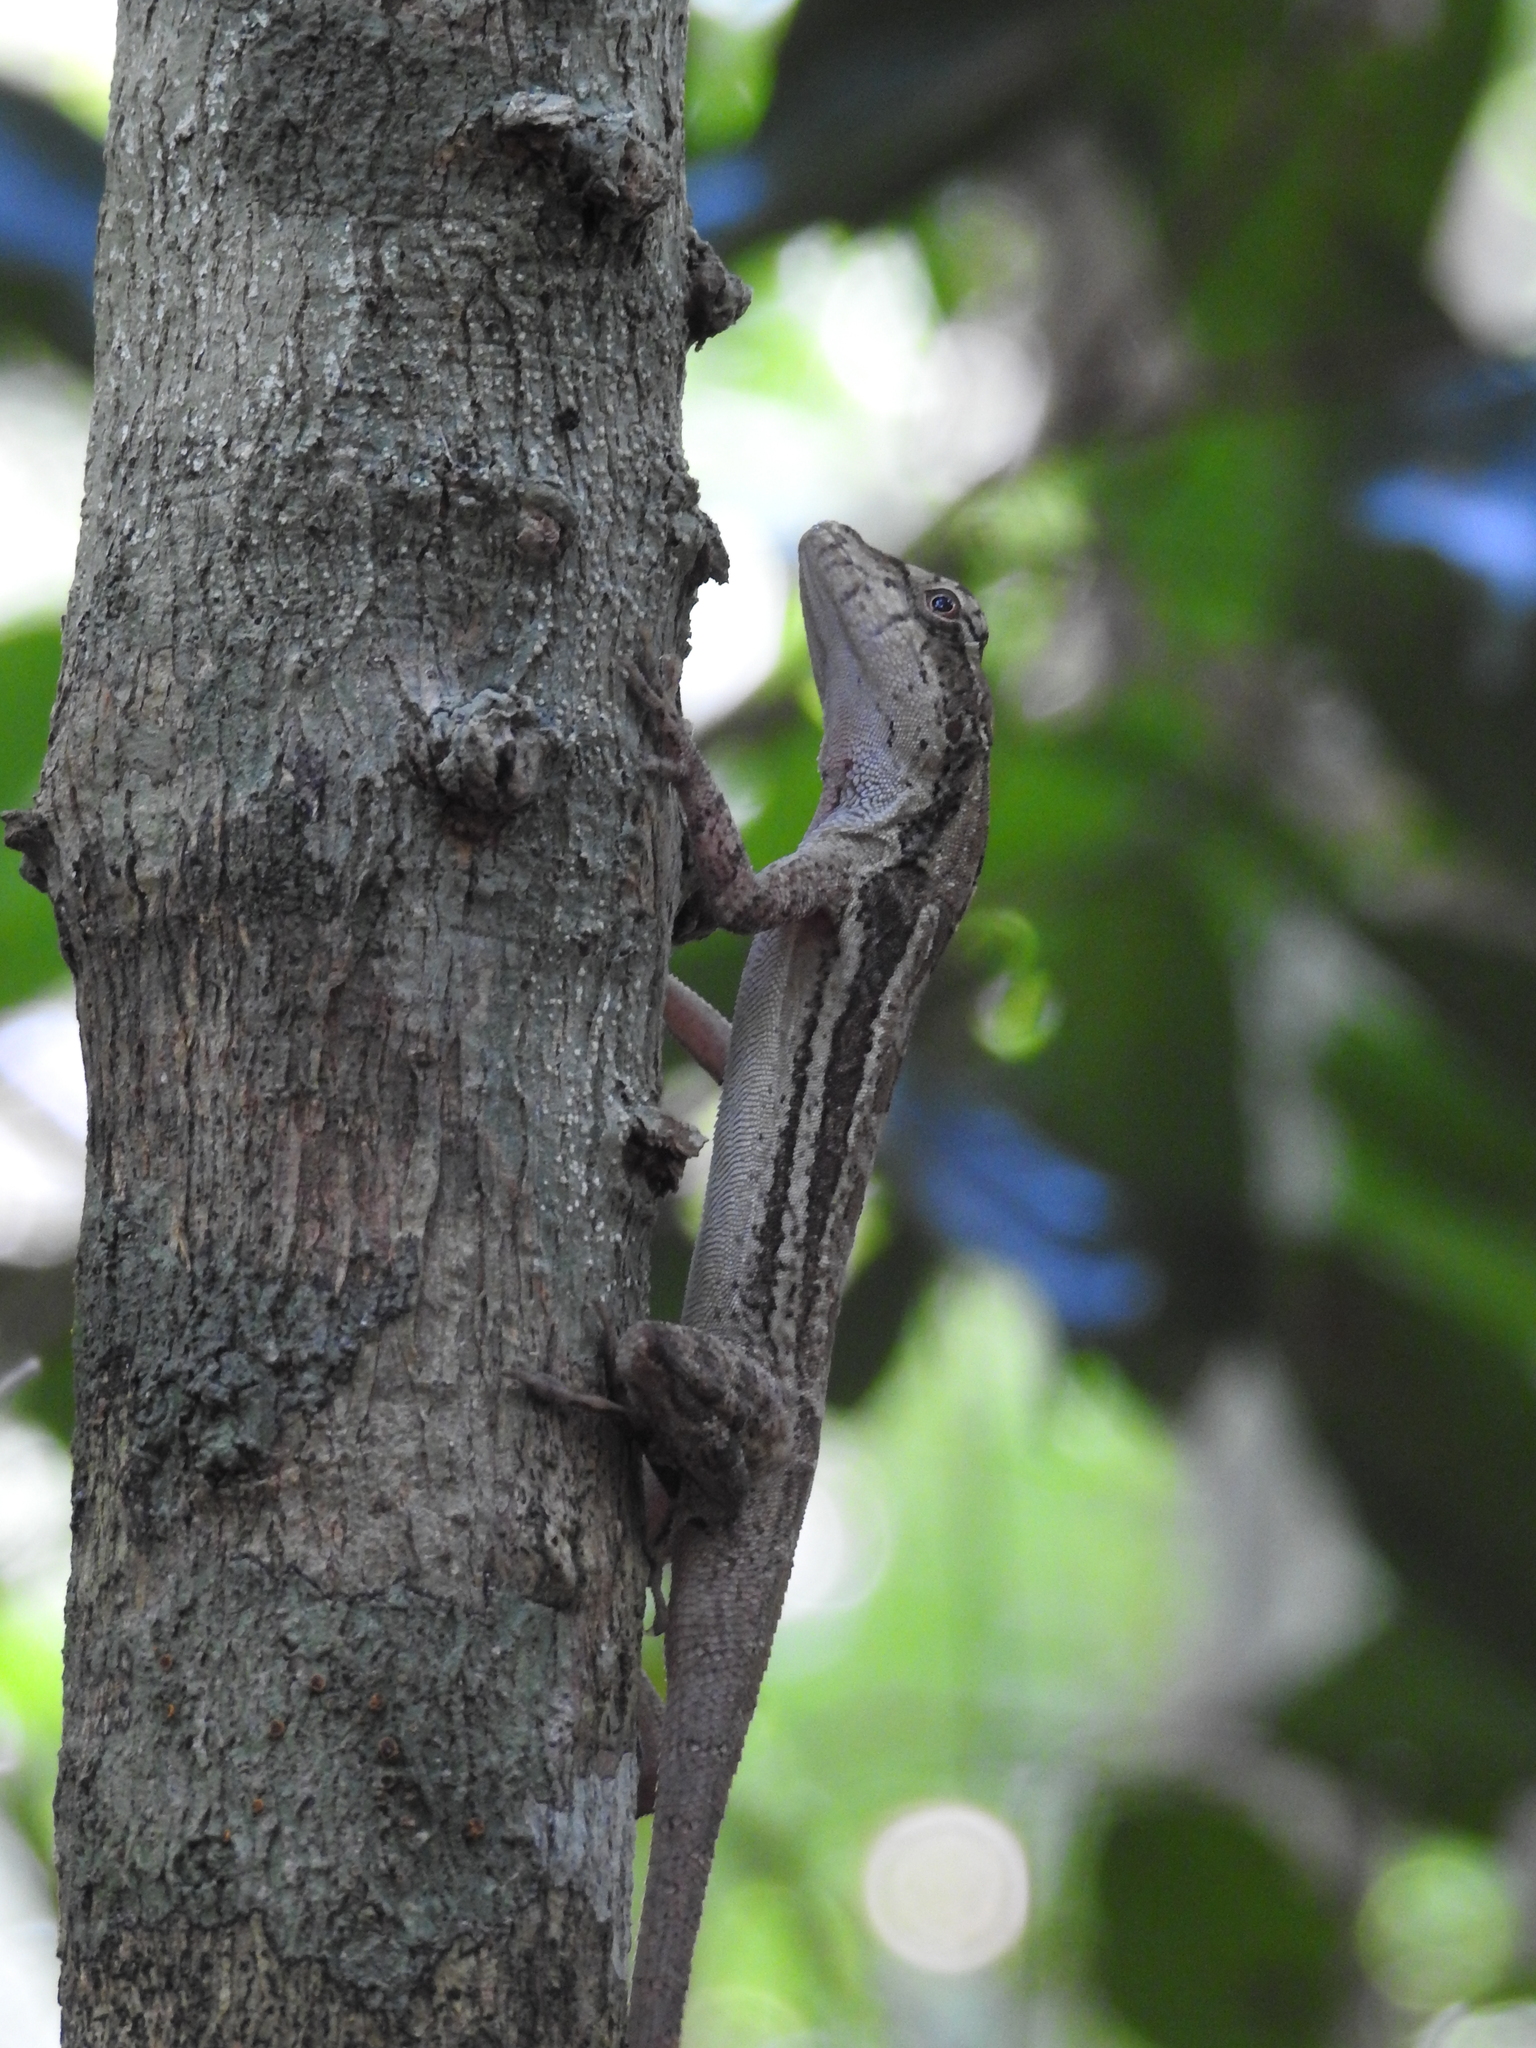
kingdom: Animalia
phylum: Chordata
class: Squamata
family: Dactyloidae
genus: Anolis
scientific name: Anolis lemurinus
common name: Ghost anole
